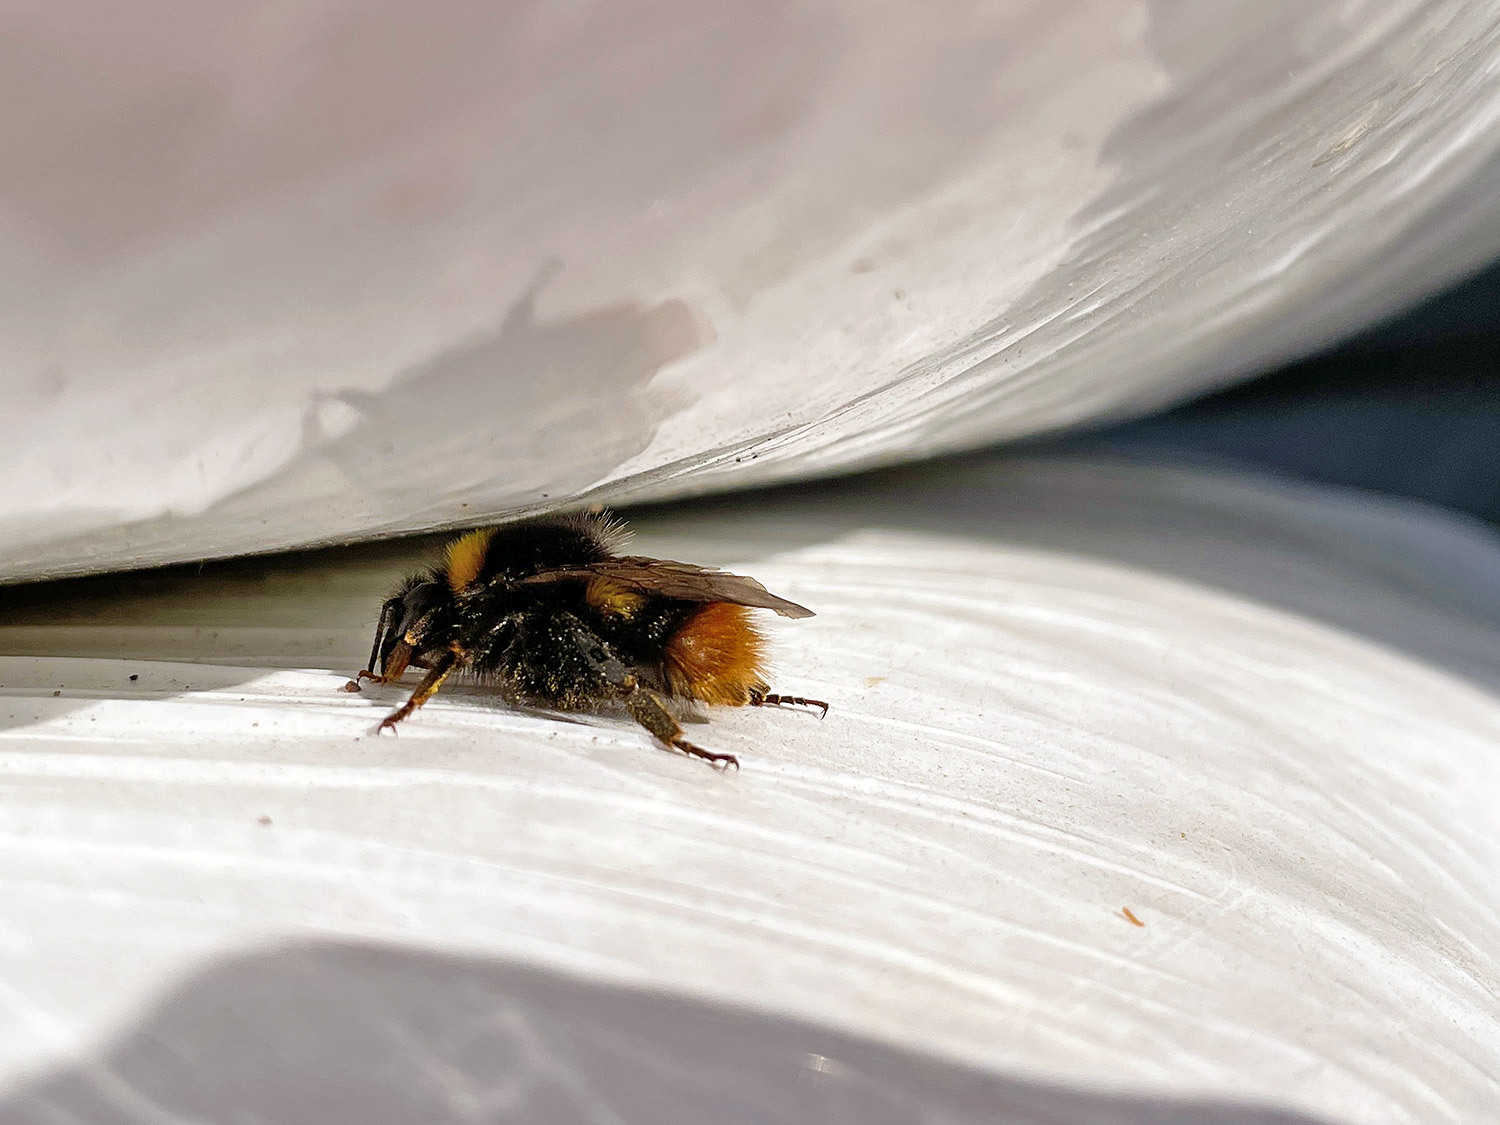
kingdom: Animalia
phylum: Arthropoda
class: Insecta
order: Hymenoptera
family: Apidae
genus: Bombus
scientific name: Bombus pratorum
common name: Early humble-bee
